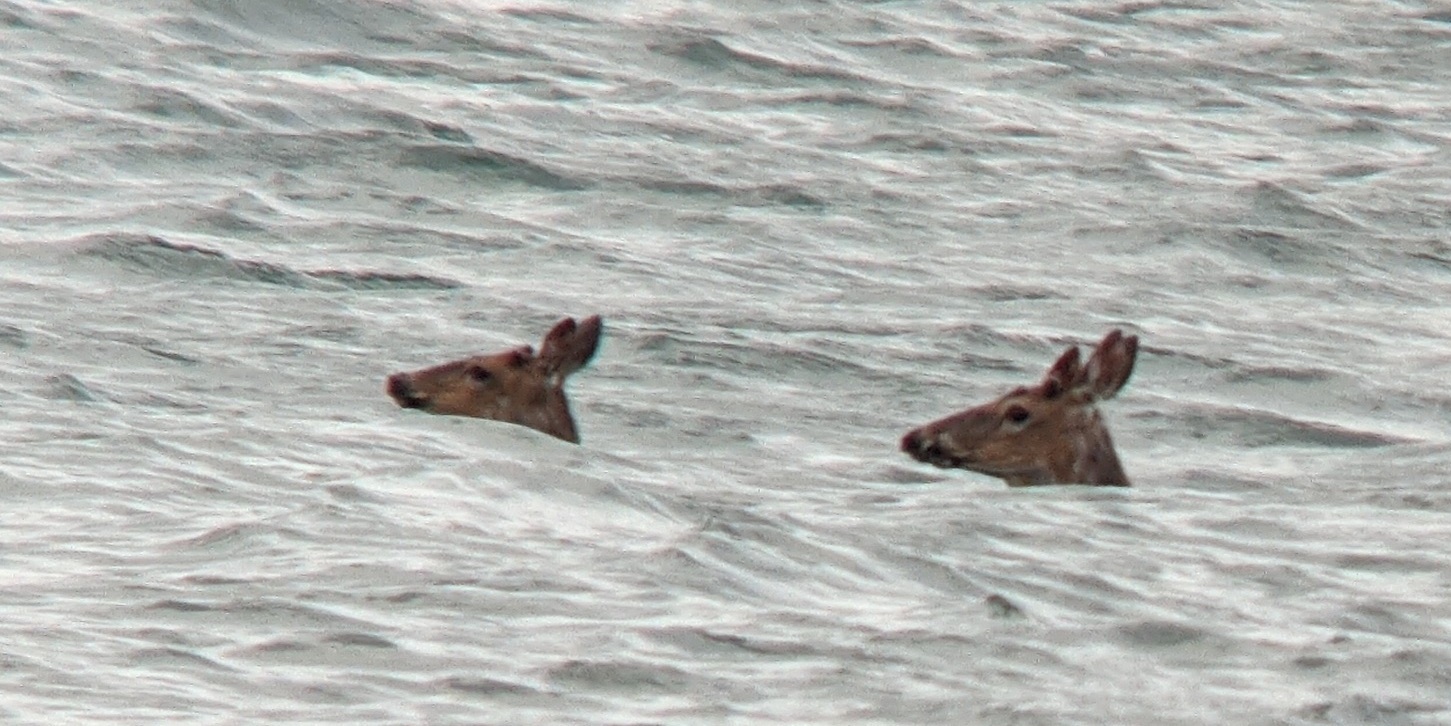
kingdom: Animalia
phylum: Chordata
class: Mammalia
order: Artiodactyla
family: Cervidae
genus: Odocoileus
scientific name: Odocoileus virginianus
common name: White-tailed deer
